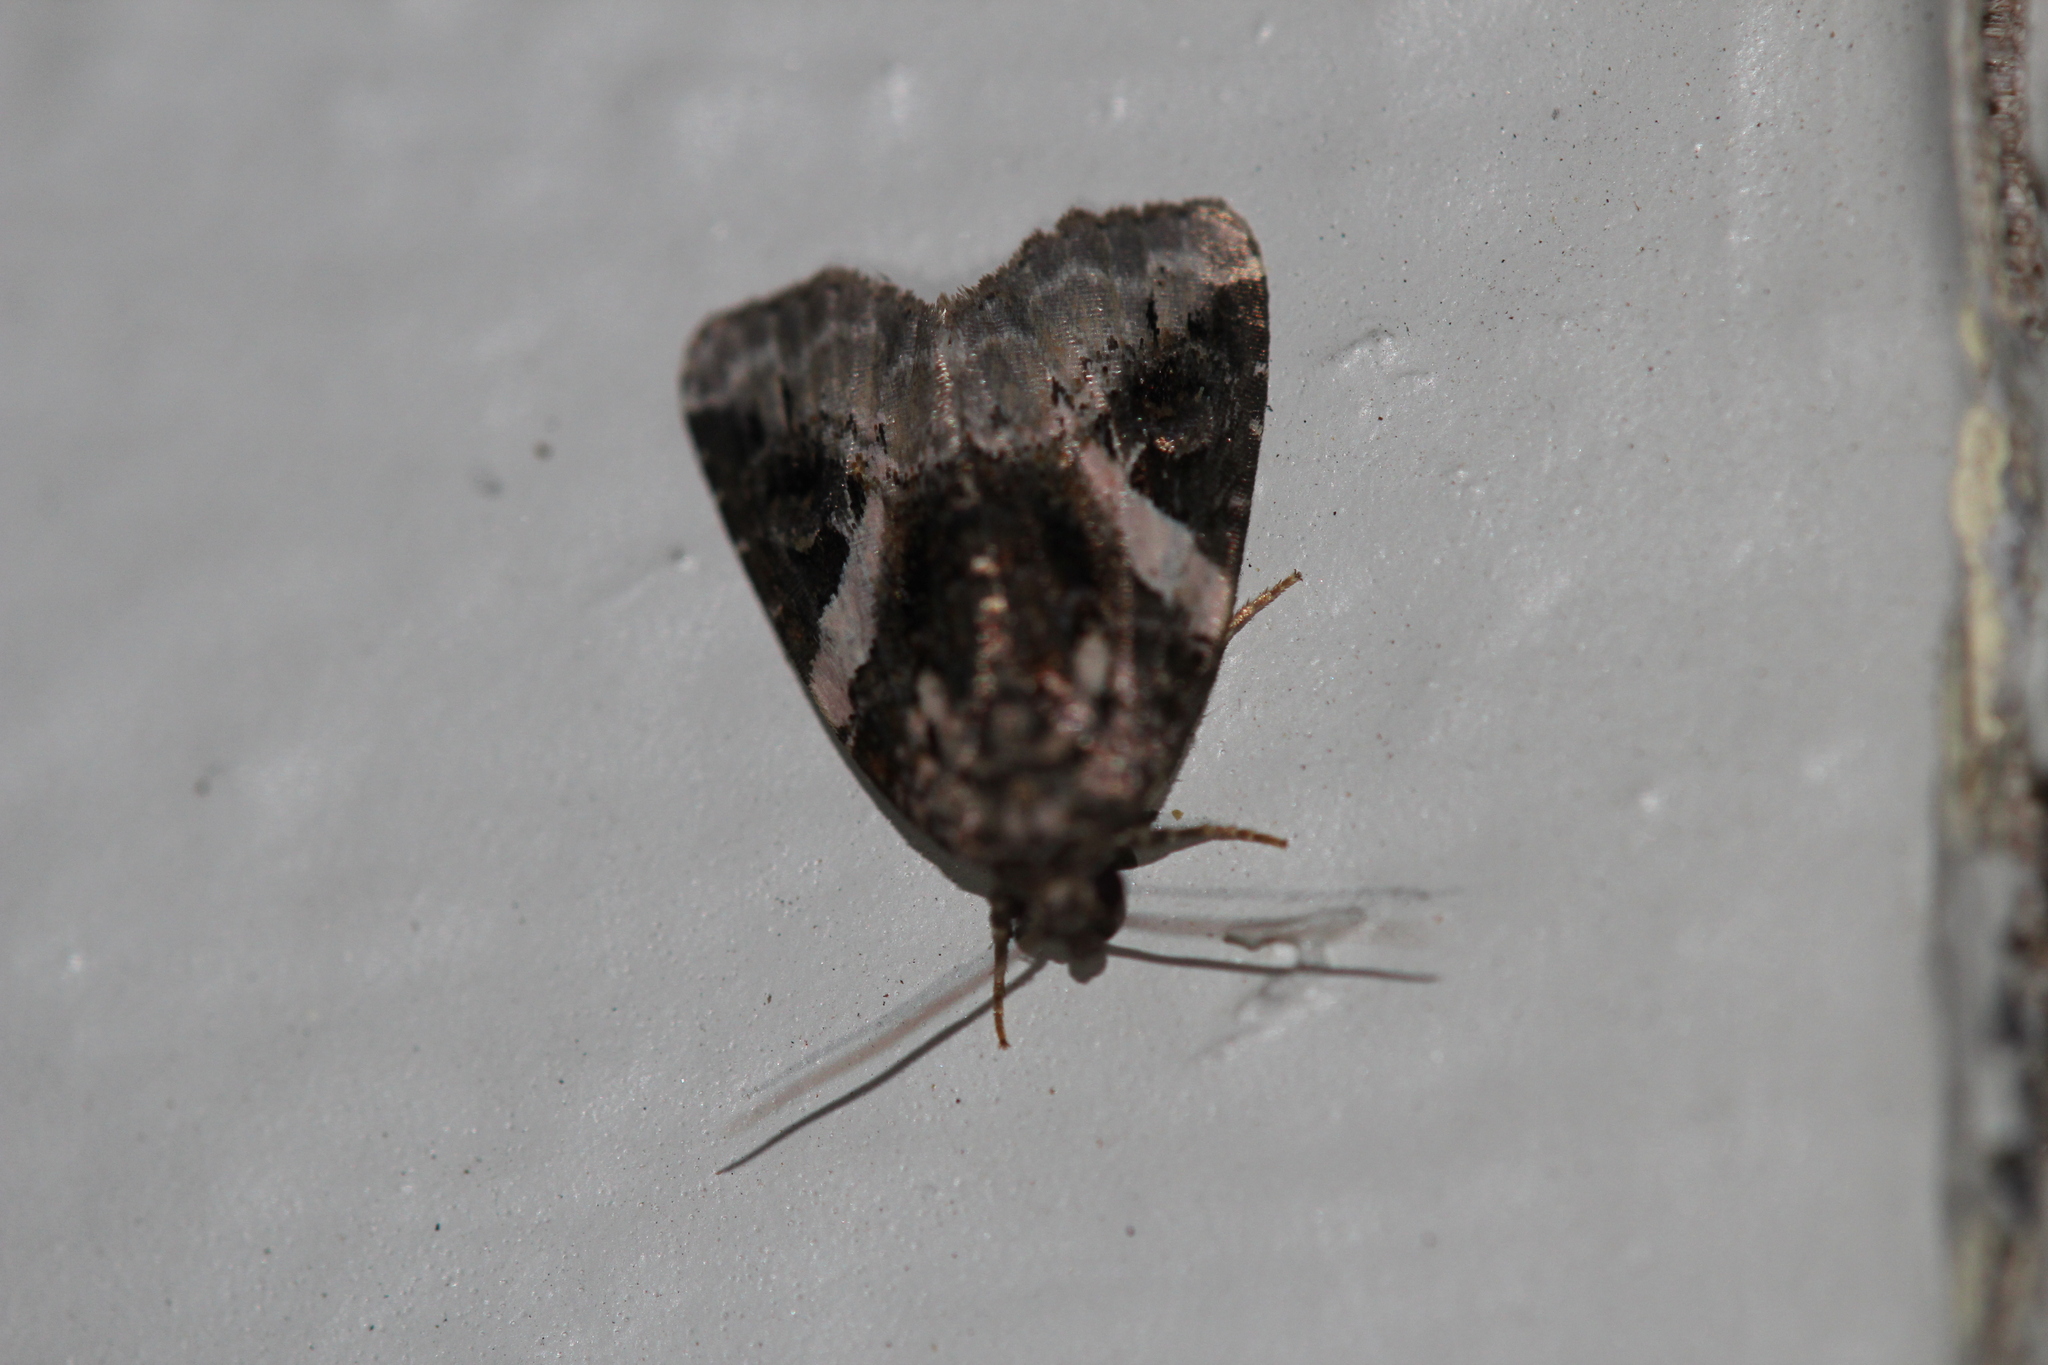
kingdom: Animalia
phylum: Arthropoda
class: Insecta
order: Lepidoptera
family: Noctuidae
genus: Pseudeustrotia
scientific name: Pseudeustrotia carneola
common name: Pink-barred lithacodia moth
